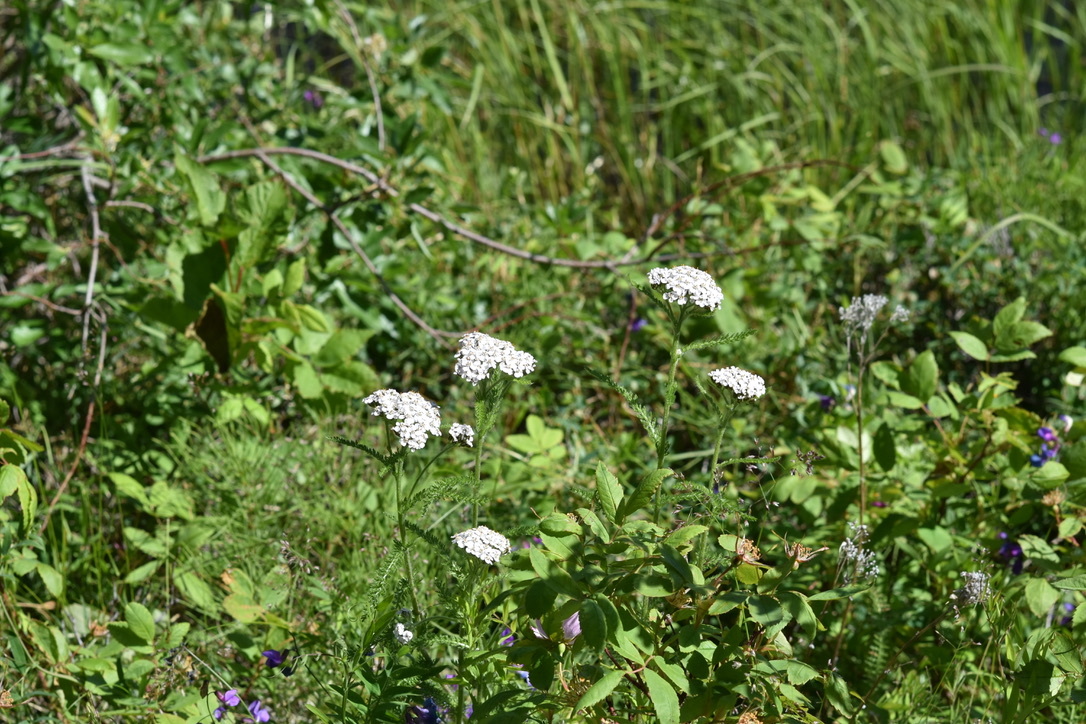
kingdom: Plantae
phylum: Tracheophyta
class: Magnoliopsida
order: Asterales
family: Asteraceae
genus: Achillea
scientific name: Achillea millefolium
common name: Yarrow
